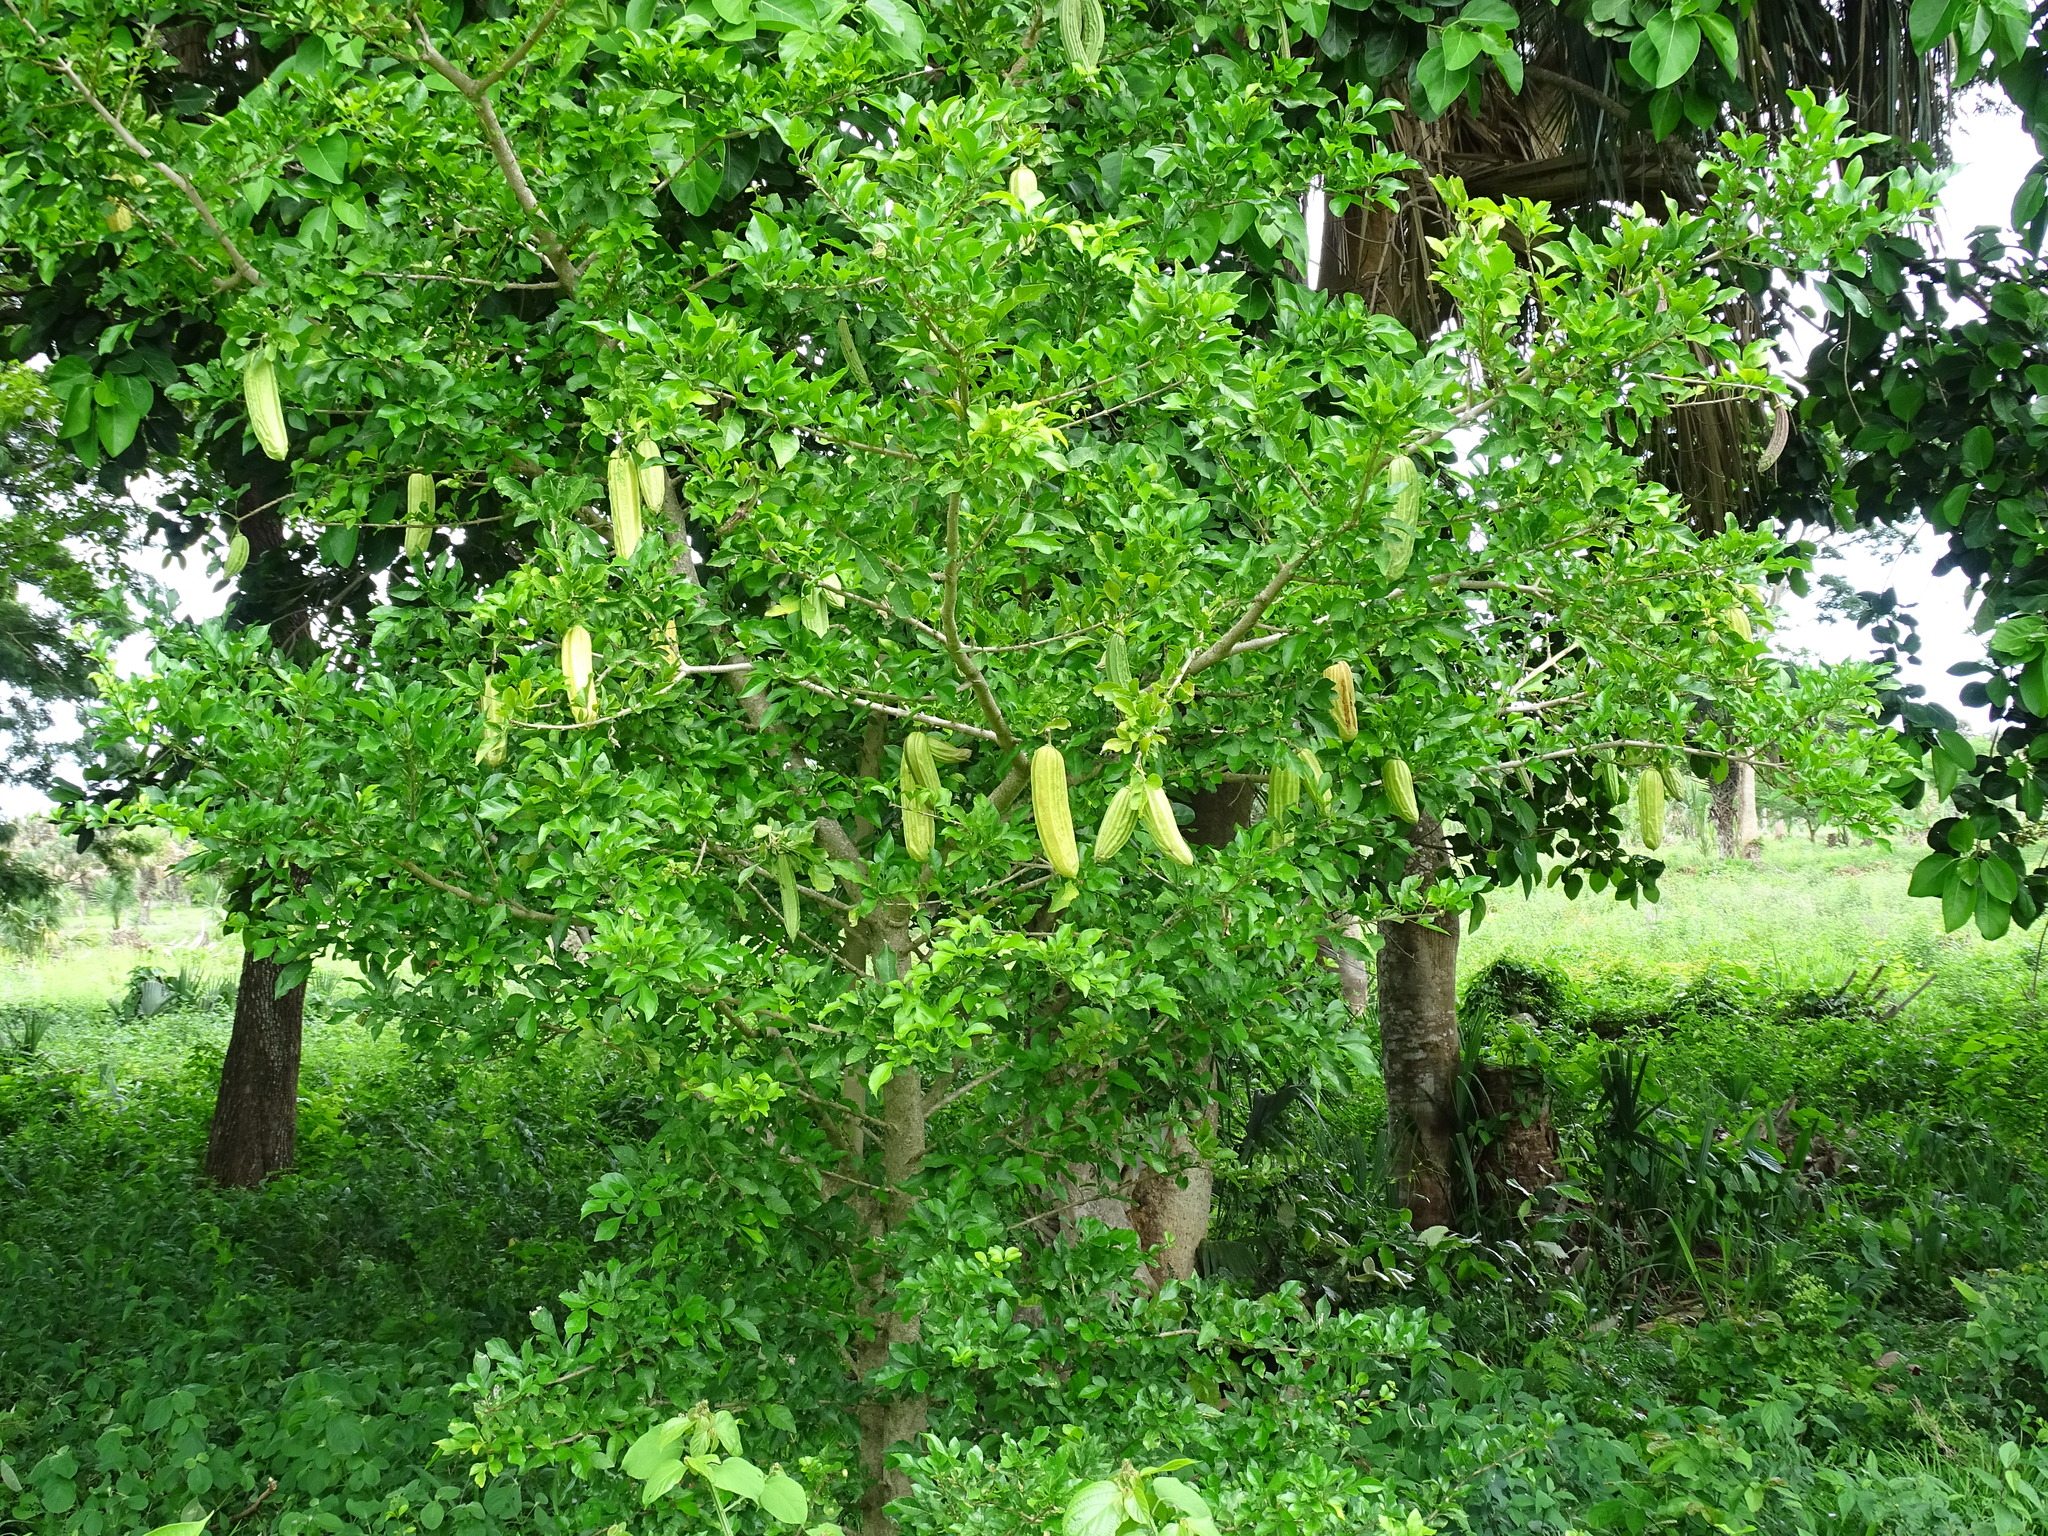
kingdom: Plantae
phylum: Tracheophyta
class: Magnoliopsida
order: Lamiales
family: Bignoniaceae
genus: Parmentiera
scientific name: Parmentiera aculeata
